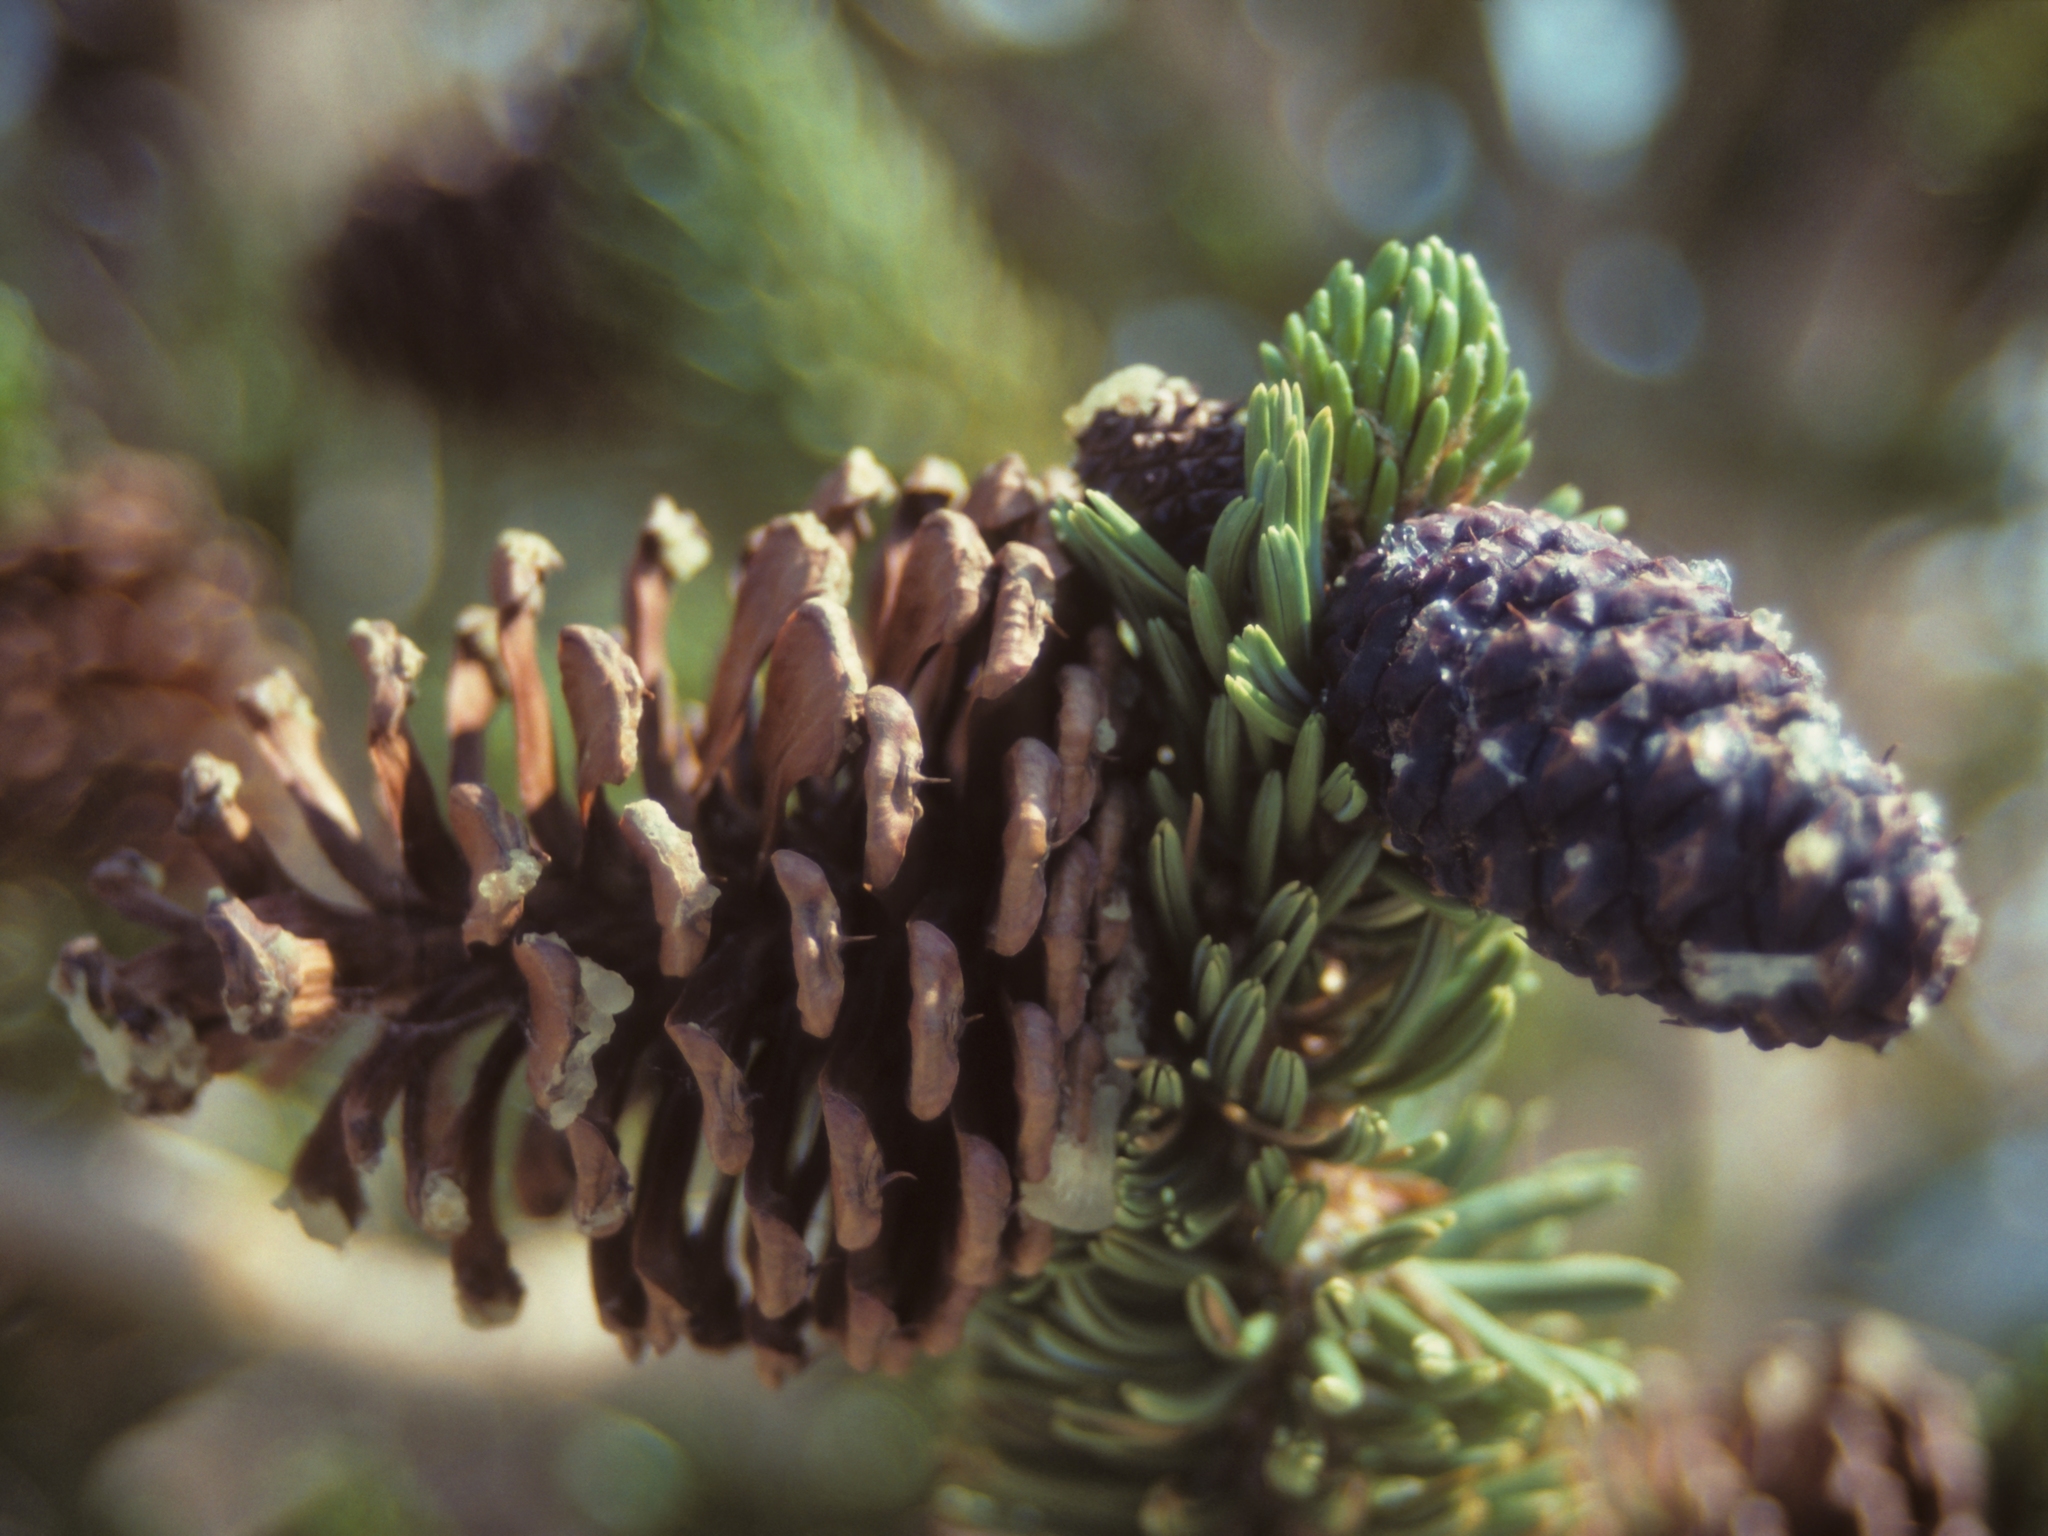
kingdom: Plantae
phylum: Tracheophyta
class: Pinopsida
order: Pinales
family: Pinaceae
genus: Pinus
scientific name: Pinus longaeva
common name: Intermountain bristlecone pine
